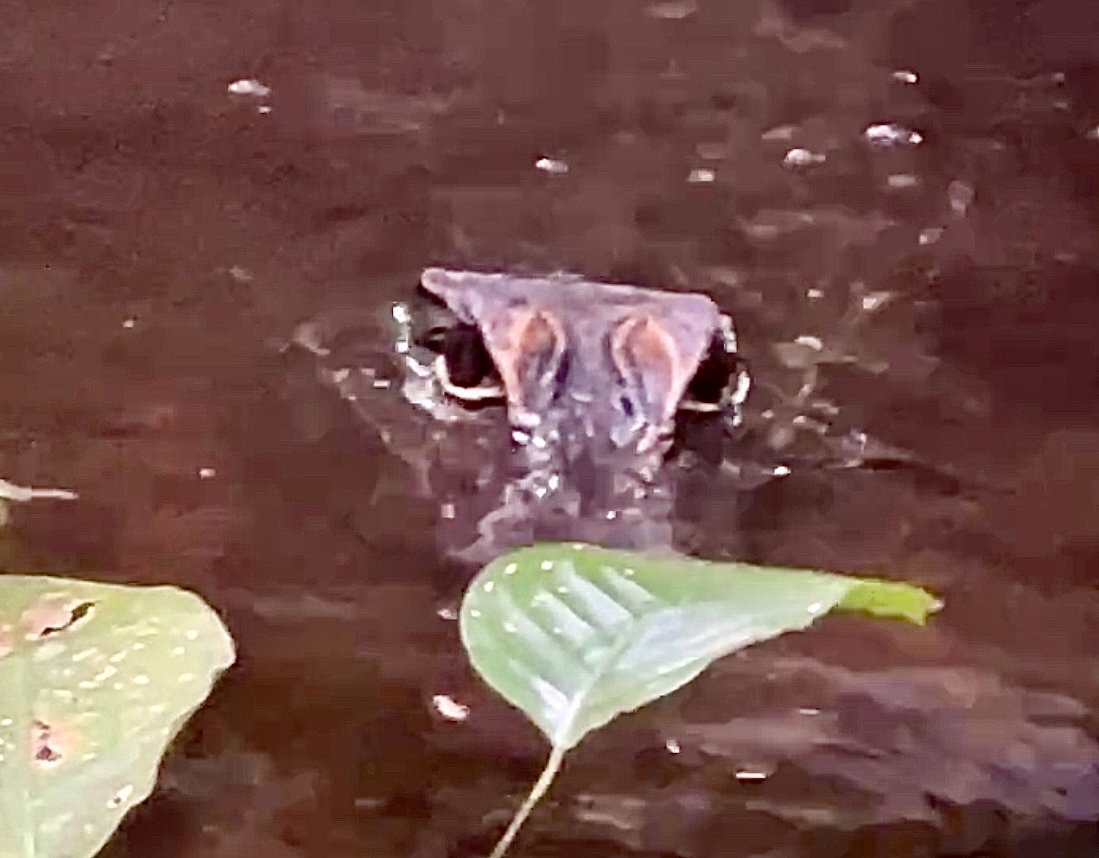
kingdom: Animalia
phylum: Chordata
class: Crocodylia
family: Crocodylidae
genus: Osteolaemus
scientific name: Osteolaemus tetraspis
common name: West african dwarf crocodile
